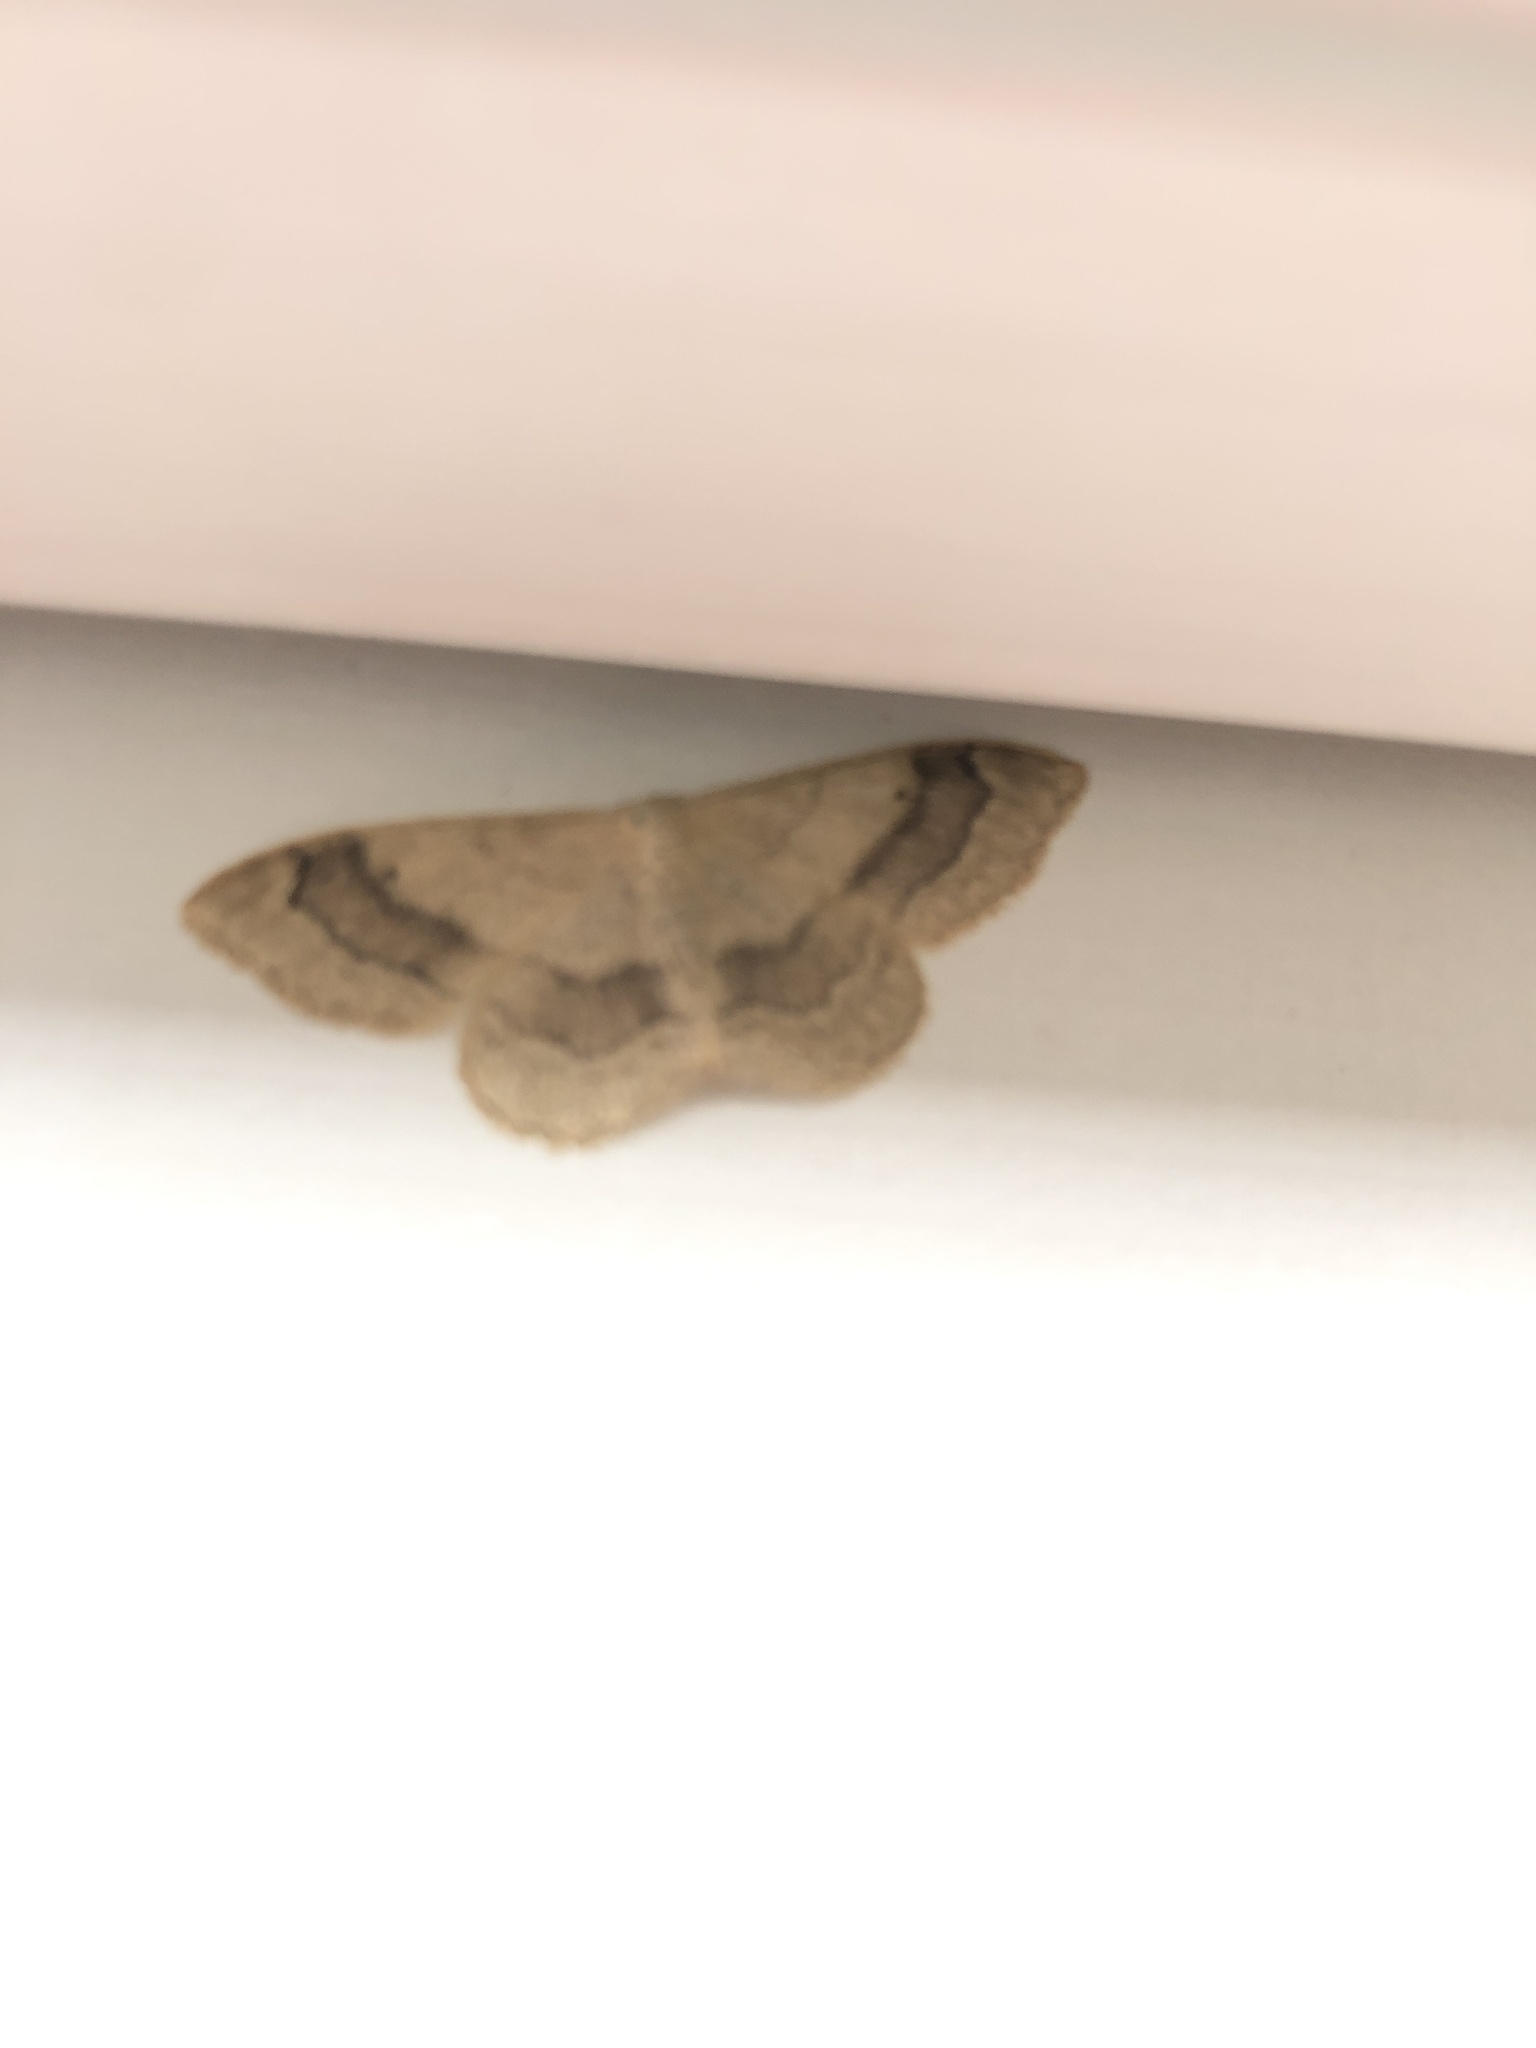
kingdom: Animalia
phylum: Arthropoda
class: Insecta
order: Lepidoptera
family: Geometridae
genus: Idaea
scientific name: Idaea aversata
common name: Riband wave
